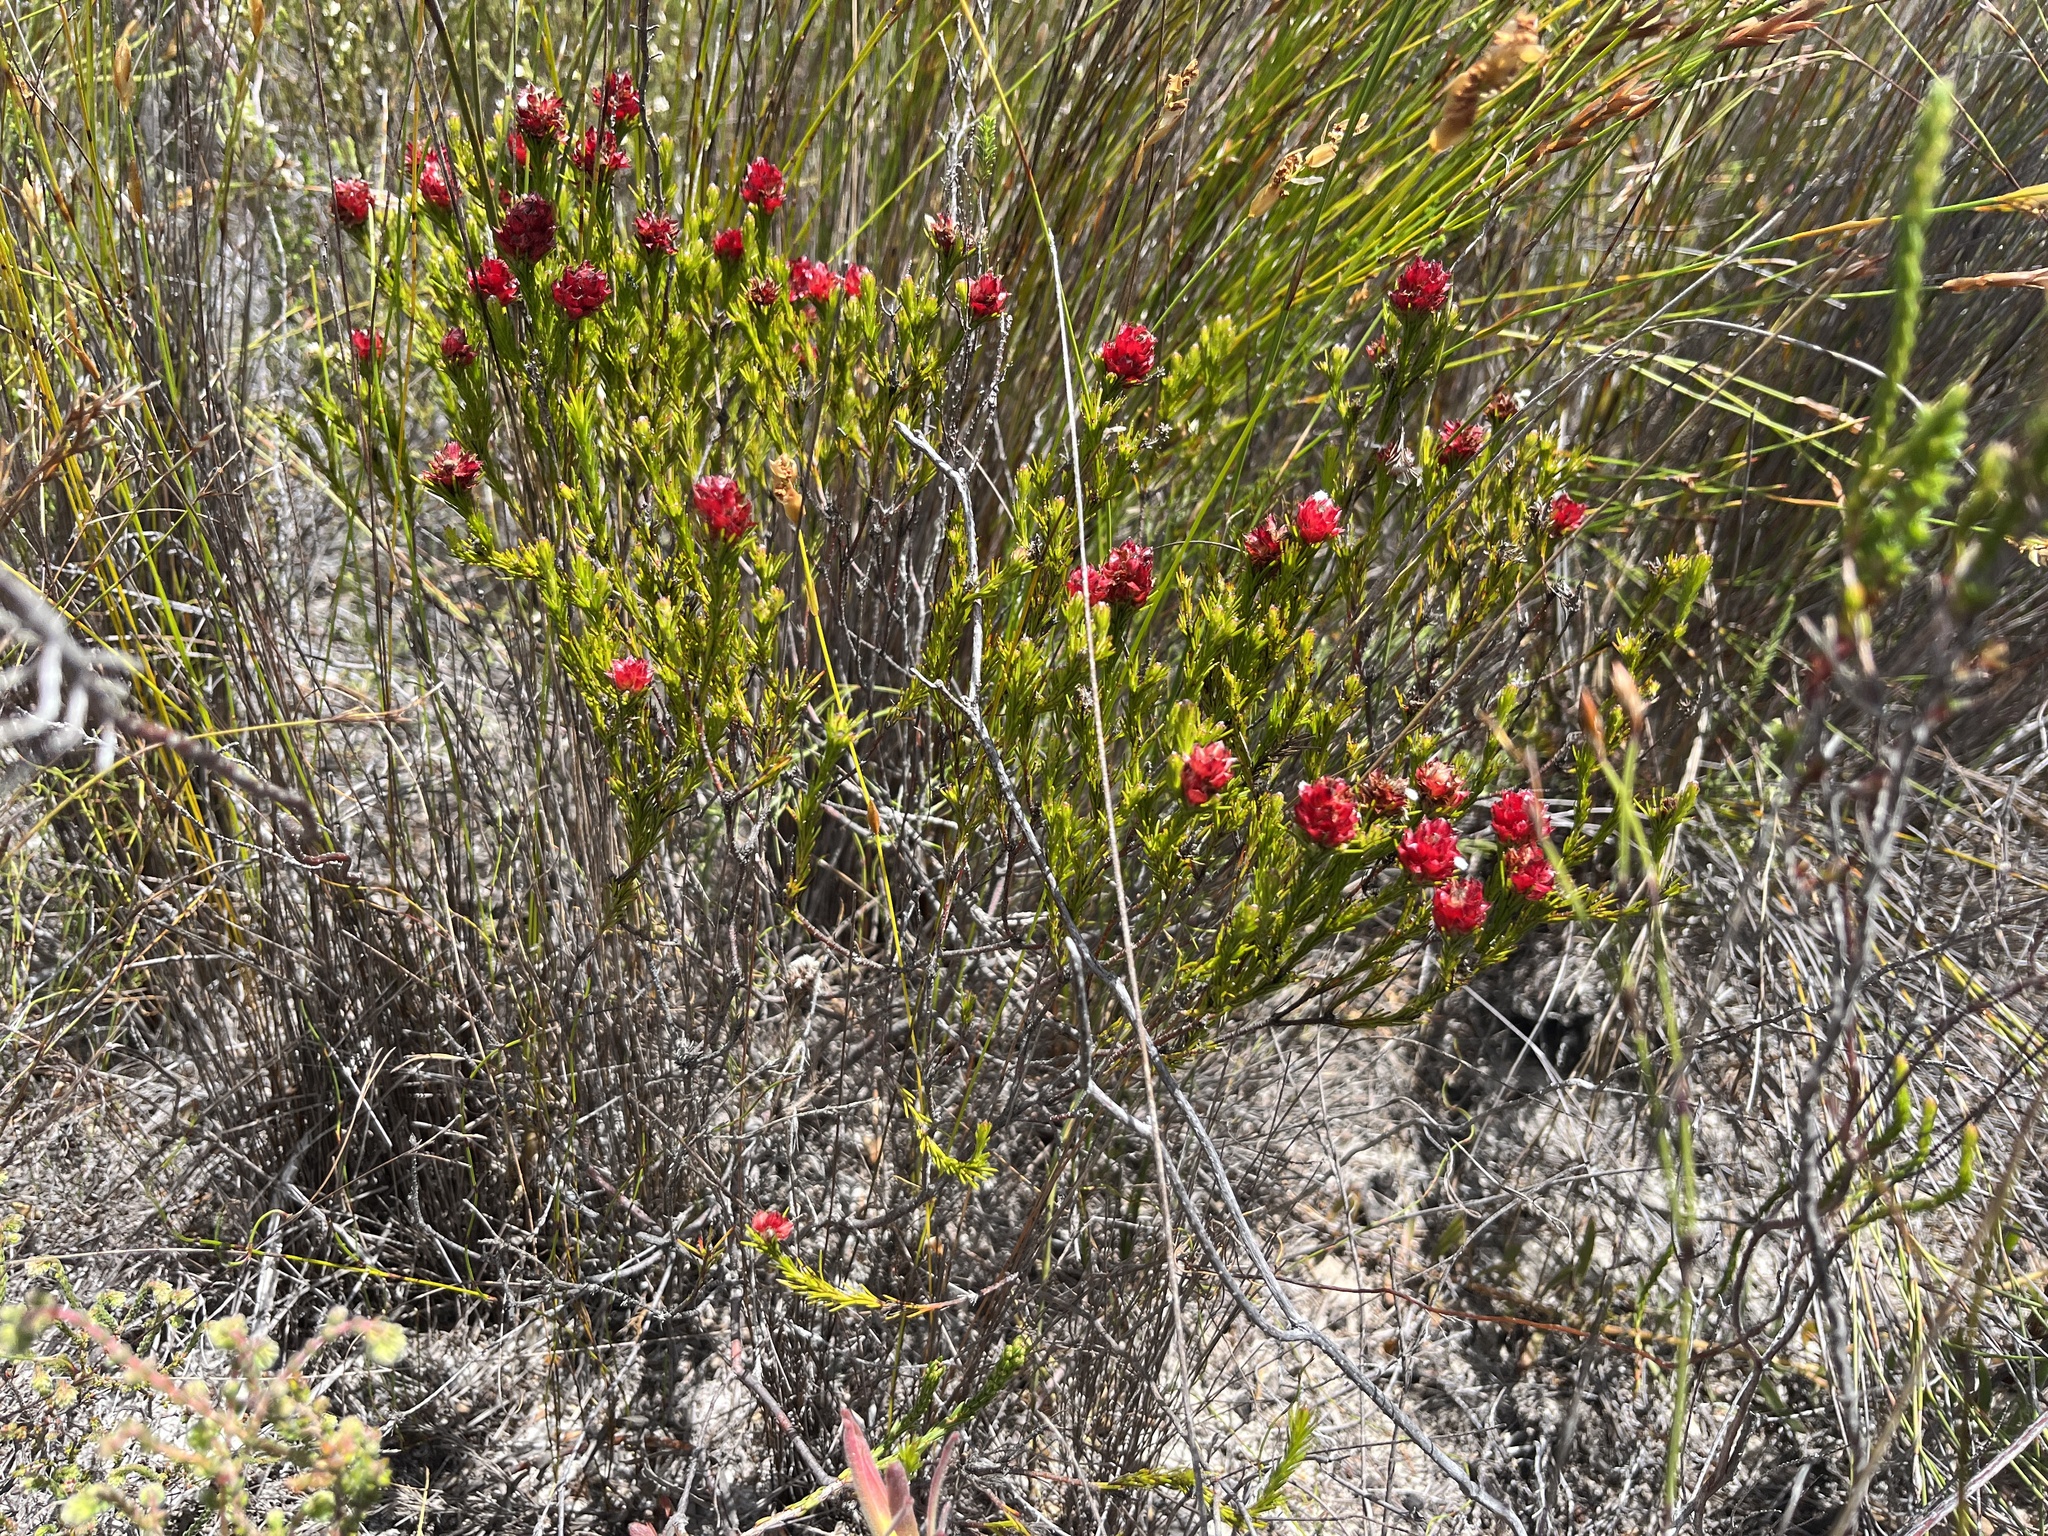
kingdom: Plantae
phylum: Tracheophyta
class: Magnoliopsida
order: Proteales
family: Proteaceae
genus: Spatalla
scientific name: Spatalla squamata
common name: Silky spoon
